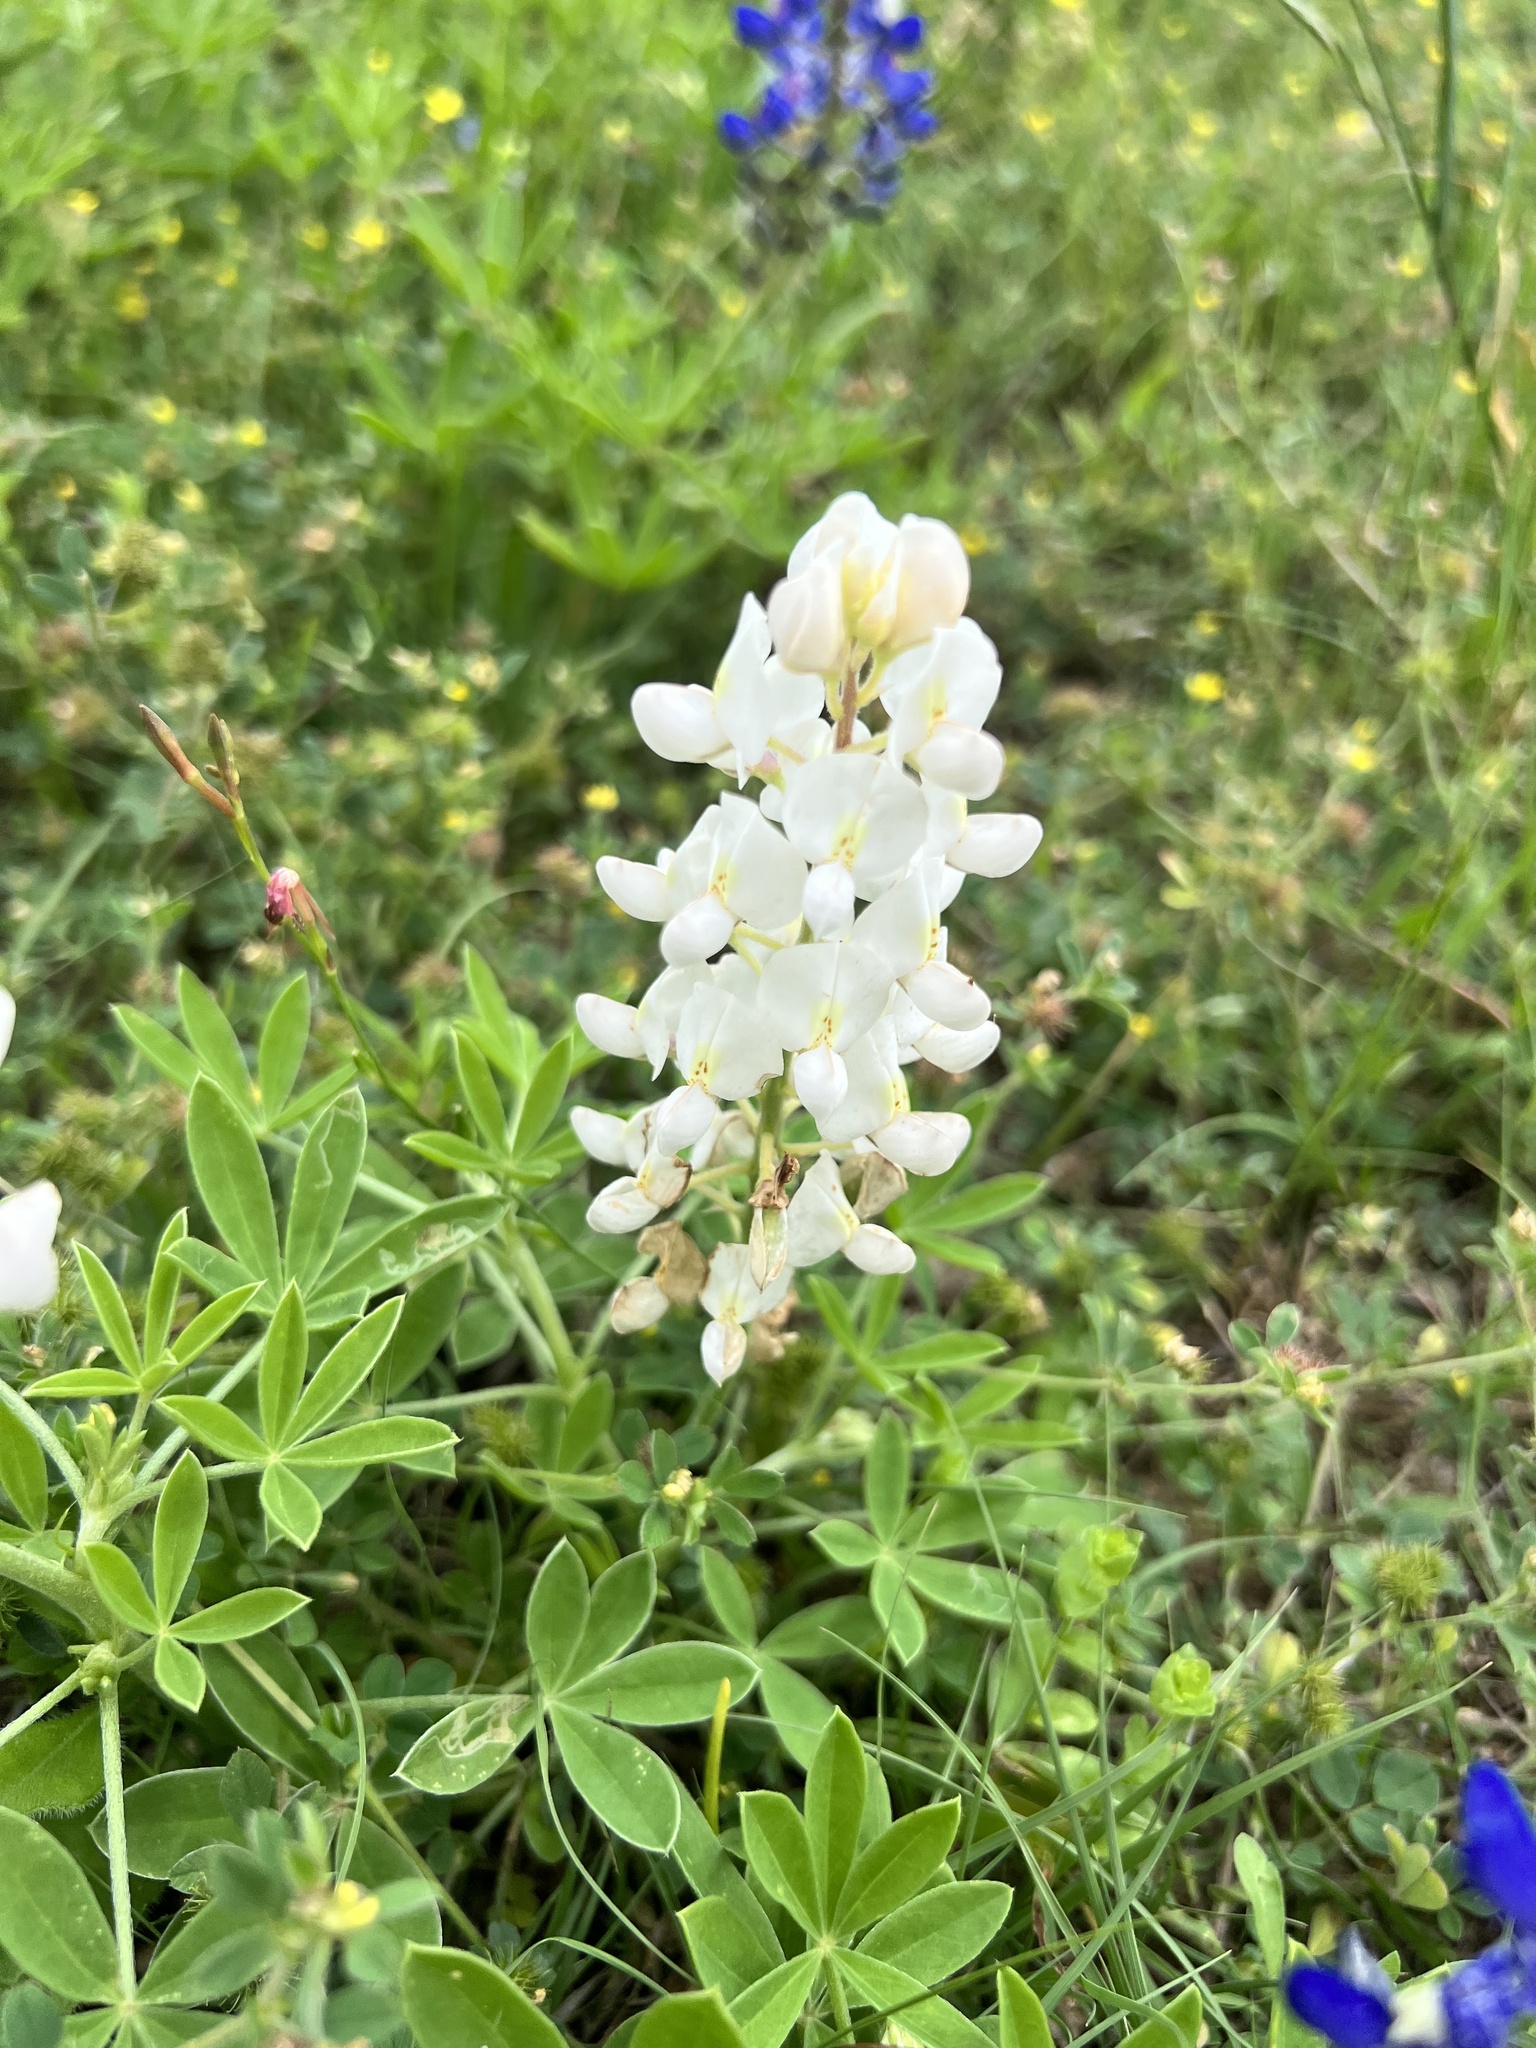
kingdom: Plantae
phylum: Tracheophyta
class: Magnoliopsida
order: Fabales
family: Fabaceae
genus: Lupinus
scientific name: Lupinus texensis
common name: Texas bluebonnet
